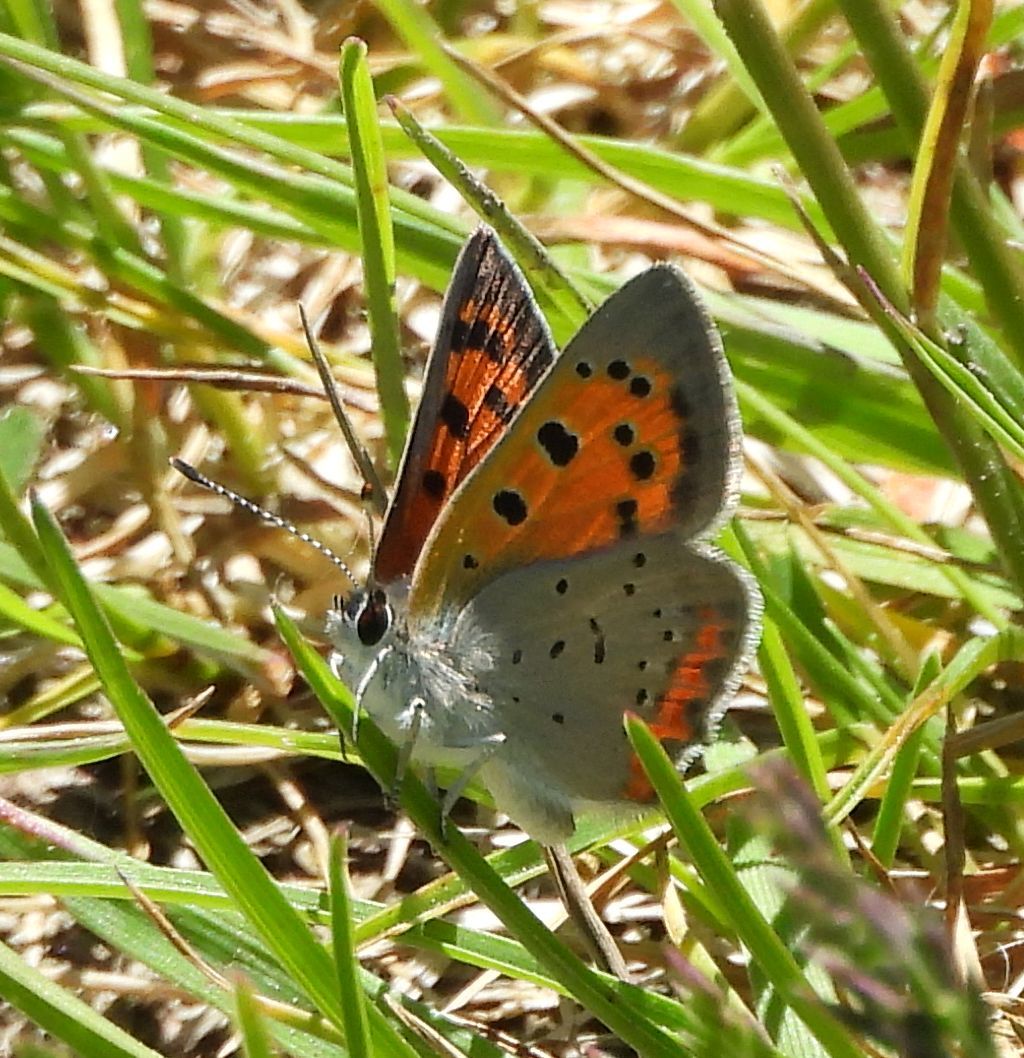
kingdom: Animalia
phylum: Arthropoda
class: Insecta
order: Lepidoptera
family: Lycaenidae
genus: Lycaena
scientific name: Lycaena hypophlaeas
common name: American copper
